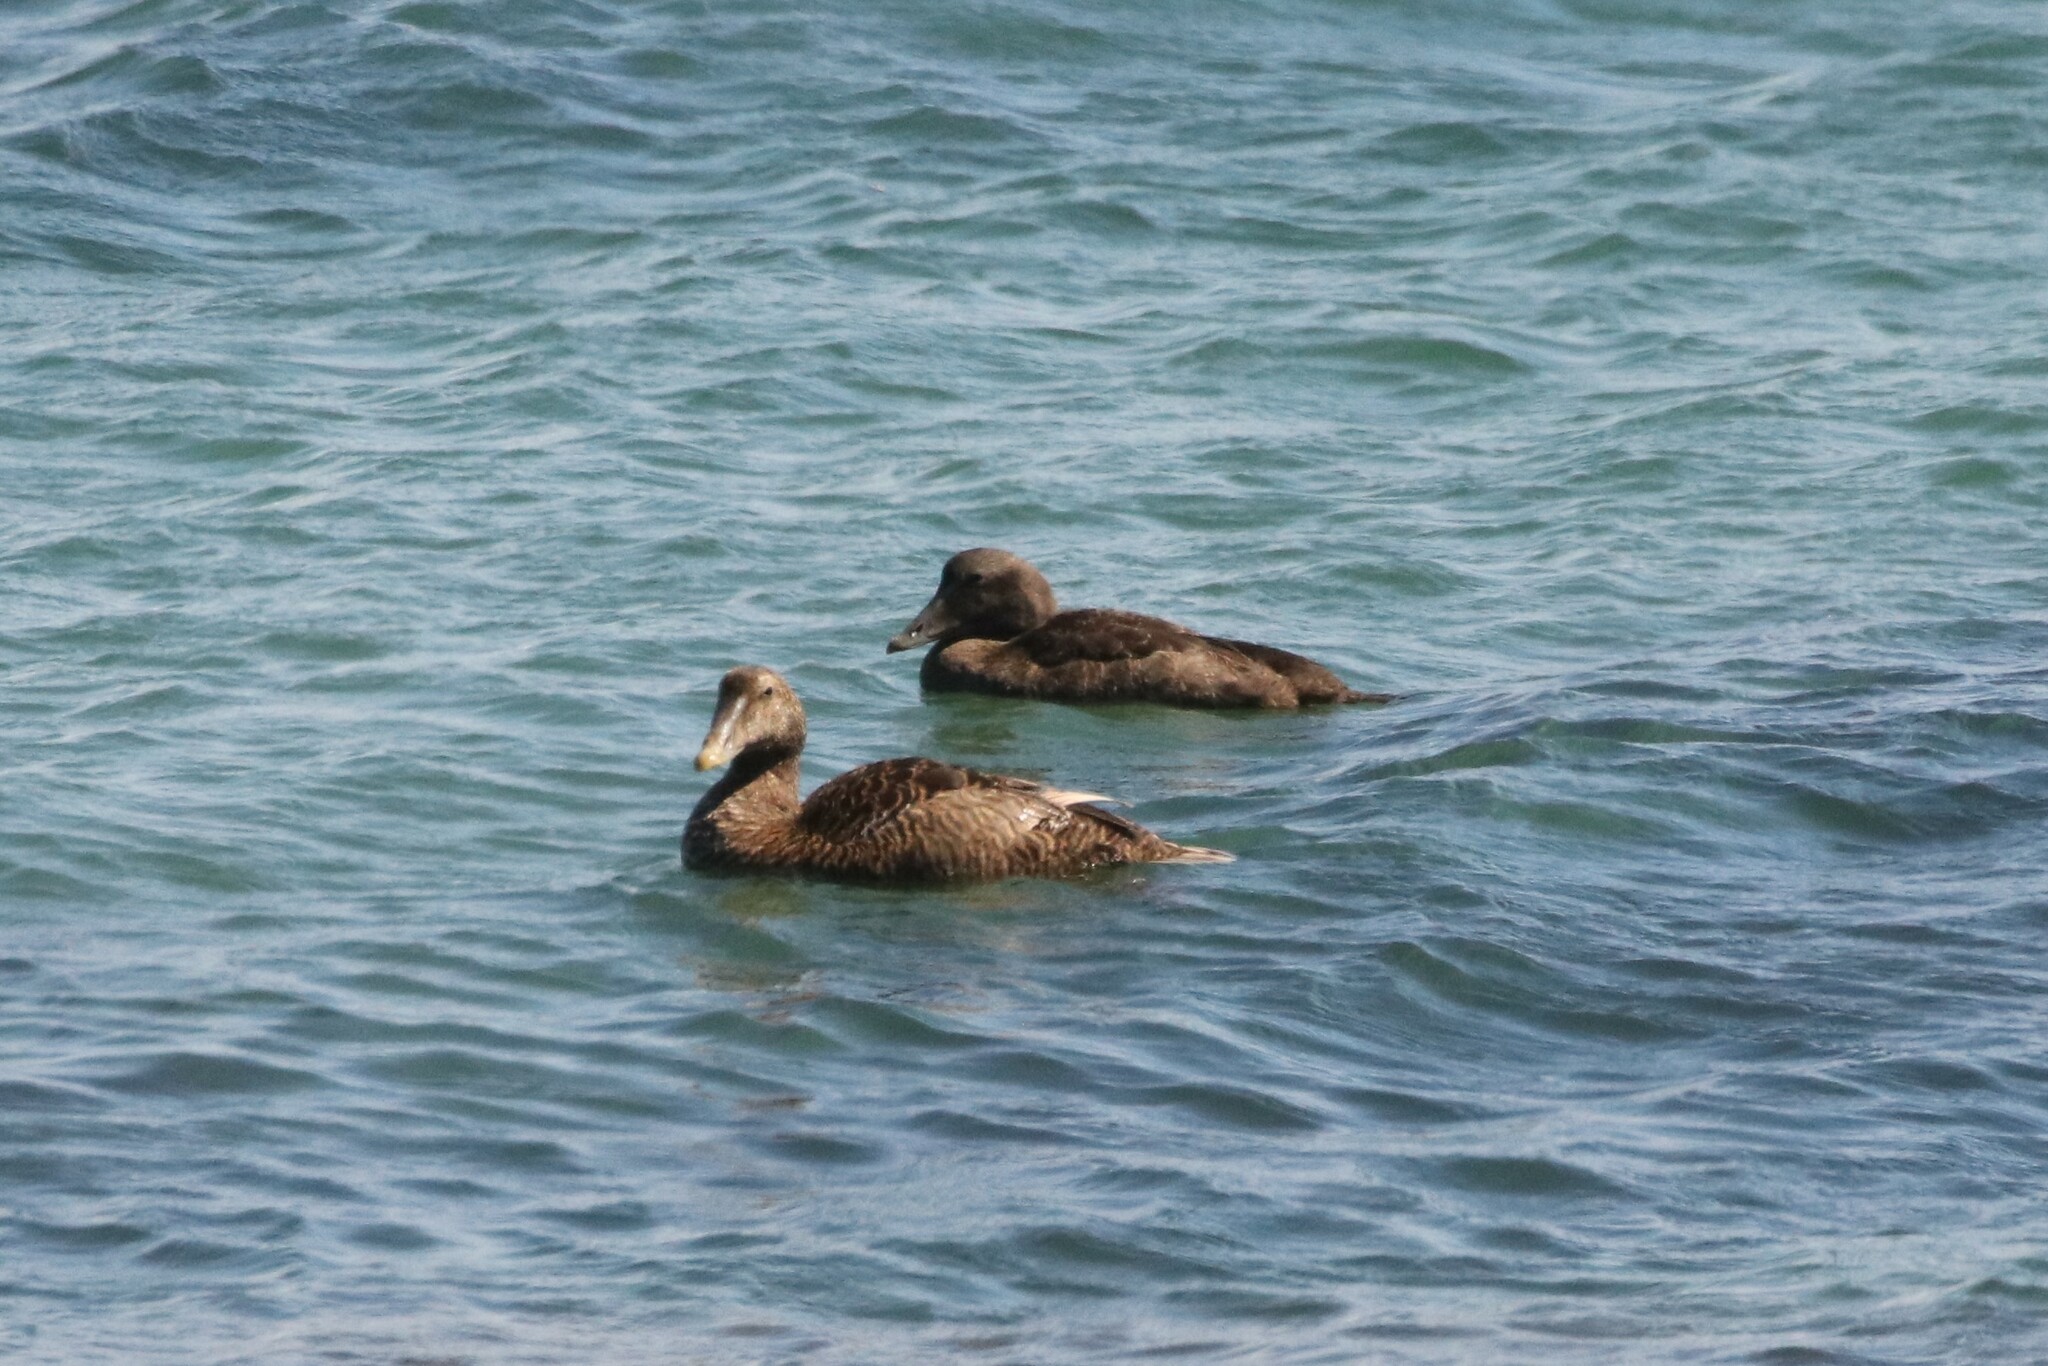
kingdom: Animalia
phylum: Chordata
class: Aves
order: Anseriformes
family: Anatidae
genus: Somateria
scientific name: Somateria mollissima
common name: Common eider
